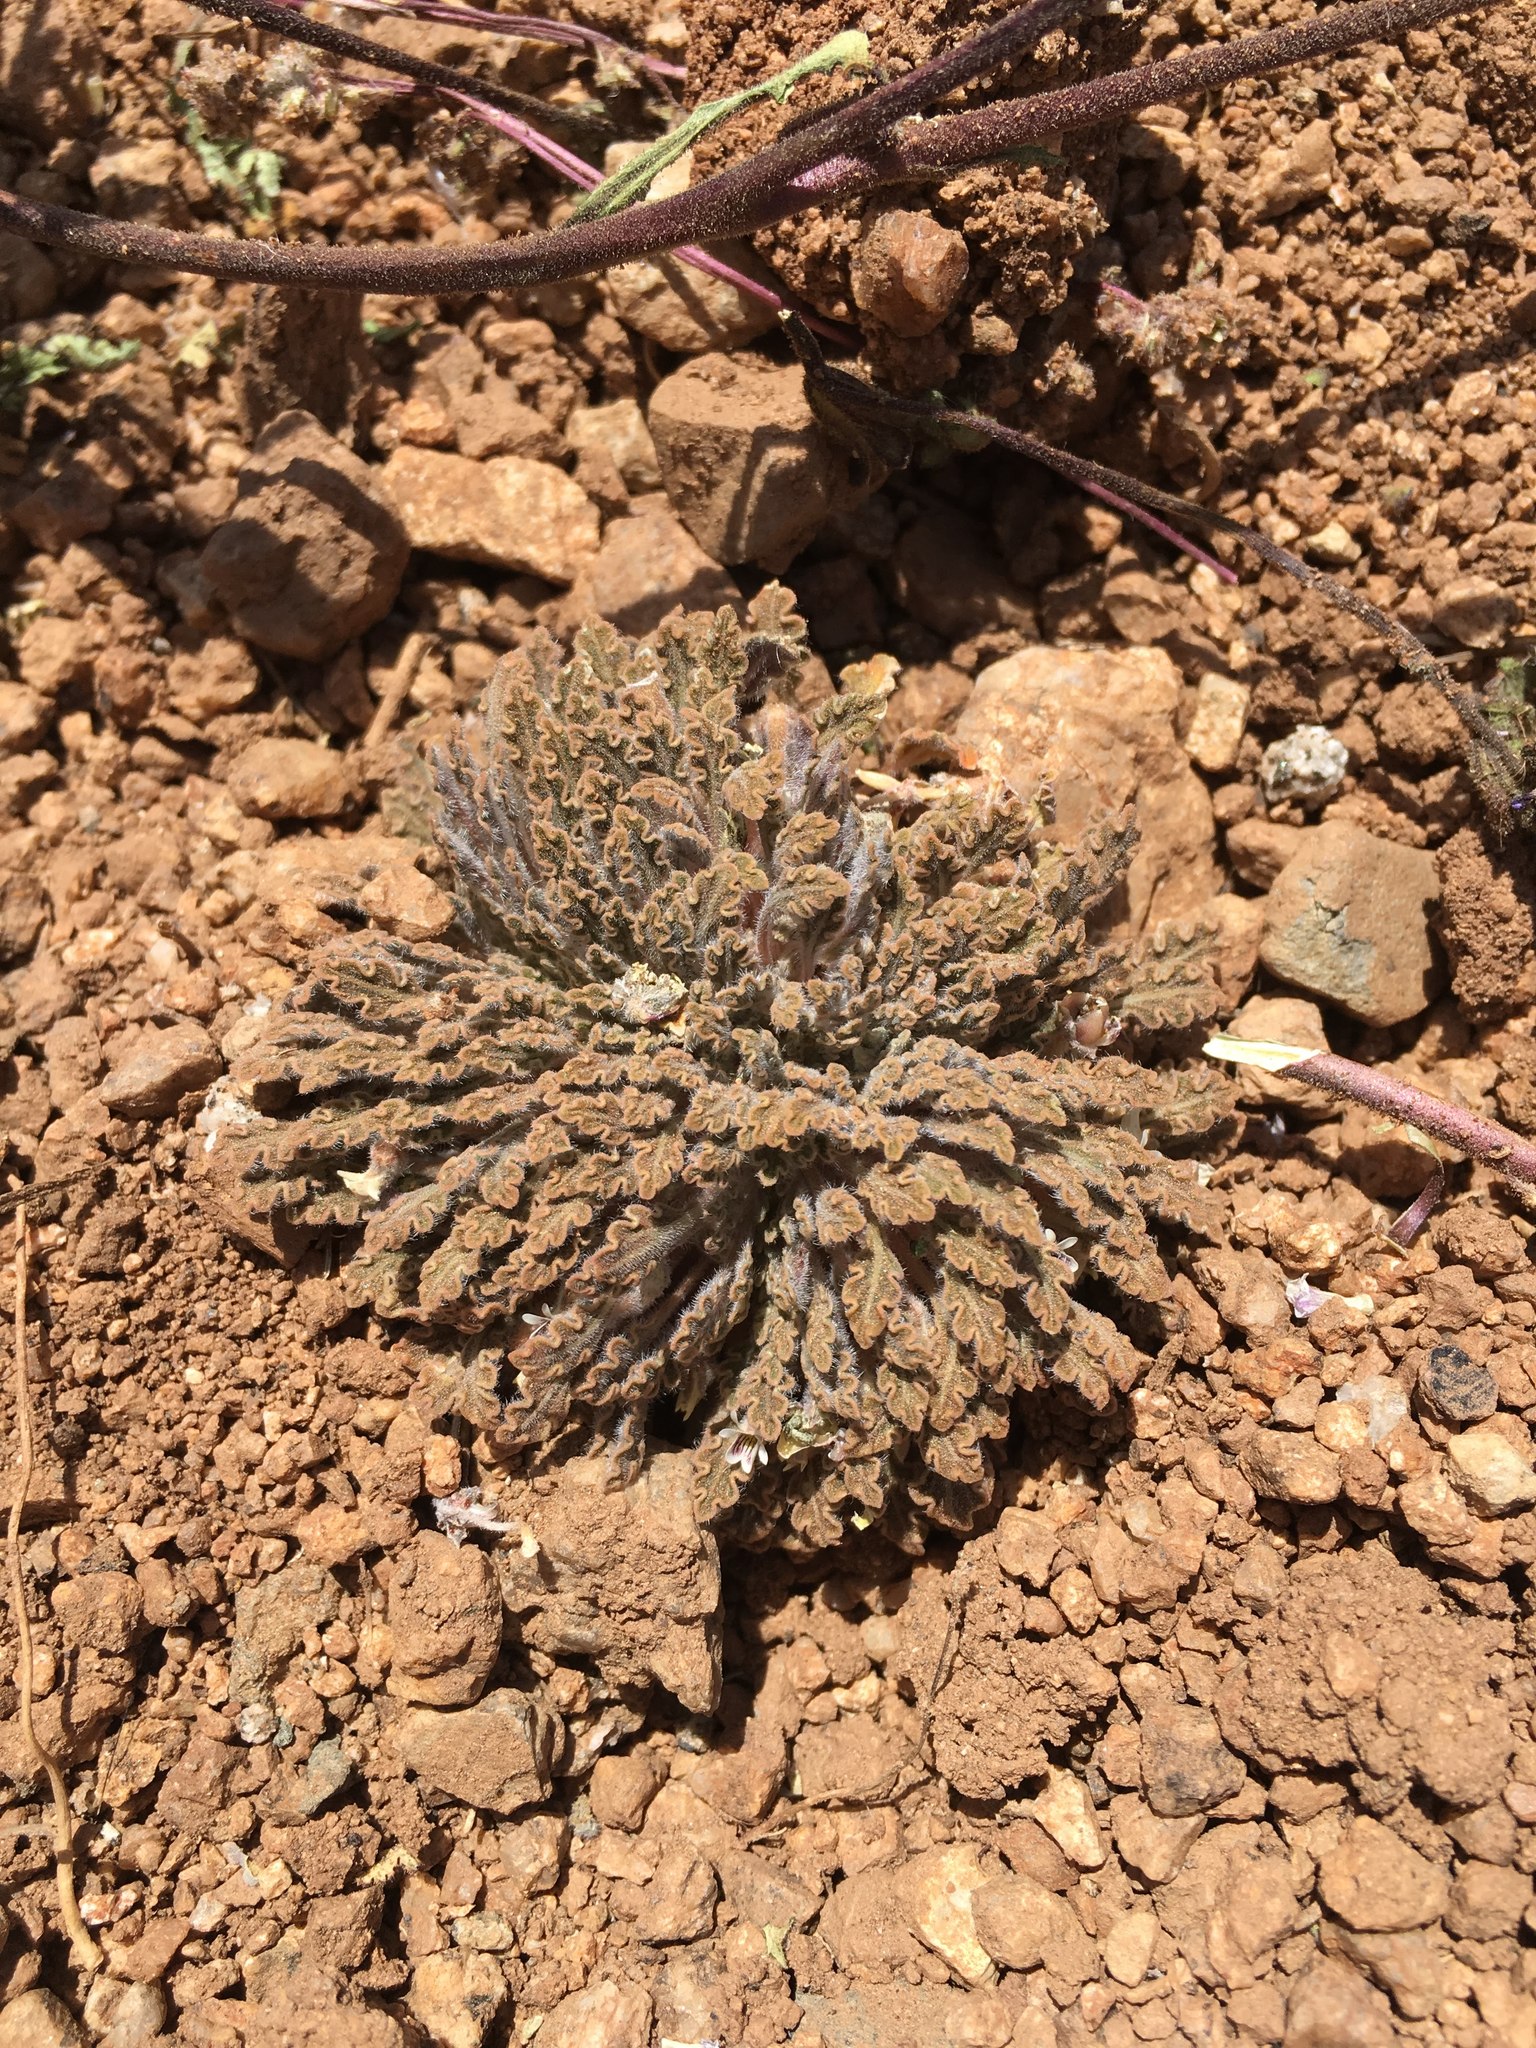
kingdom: Plantae
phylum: Tracheophyta
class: Magnoliopsida
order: Malpighiales
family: Violaceae
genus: Viola
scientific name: Viola frigida
